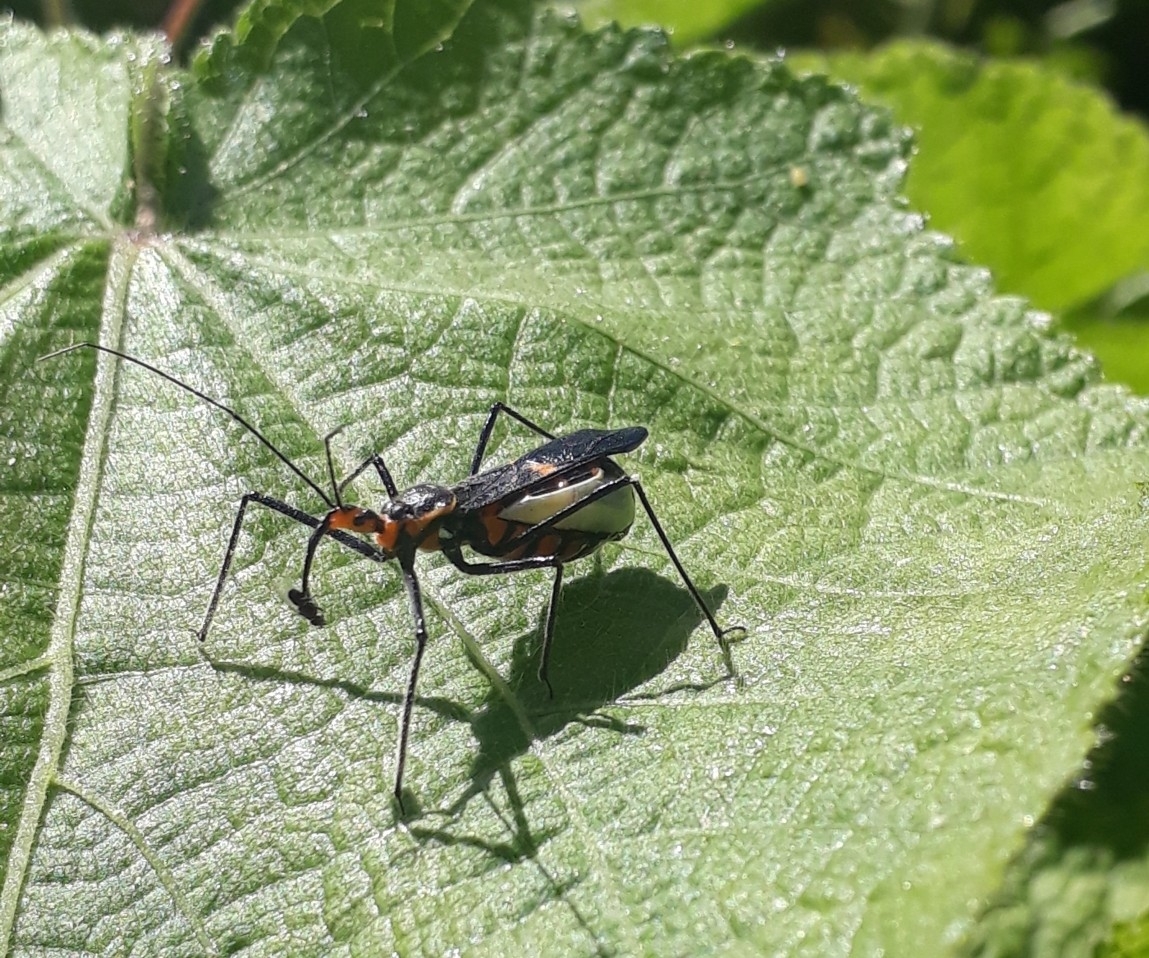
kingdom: Animalia
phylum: Arthropoda
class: Insecta
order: Hemiptera
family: Reduviidae
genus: Zelus
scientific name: Zelus longipes
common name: Milkweed assassin bug
